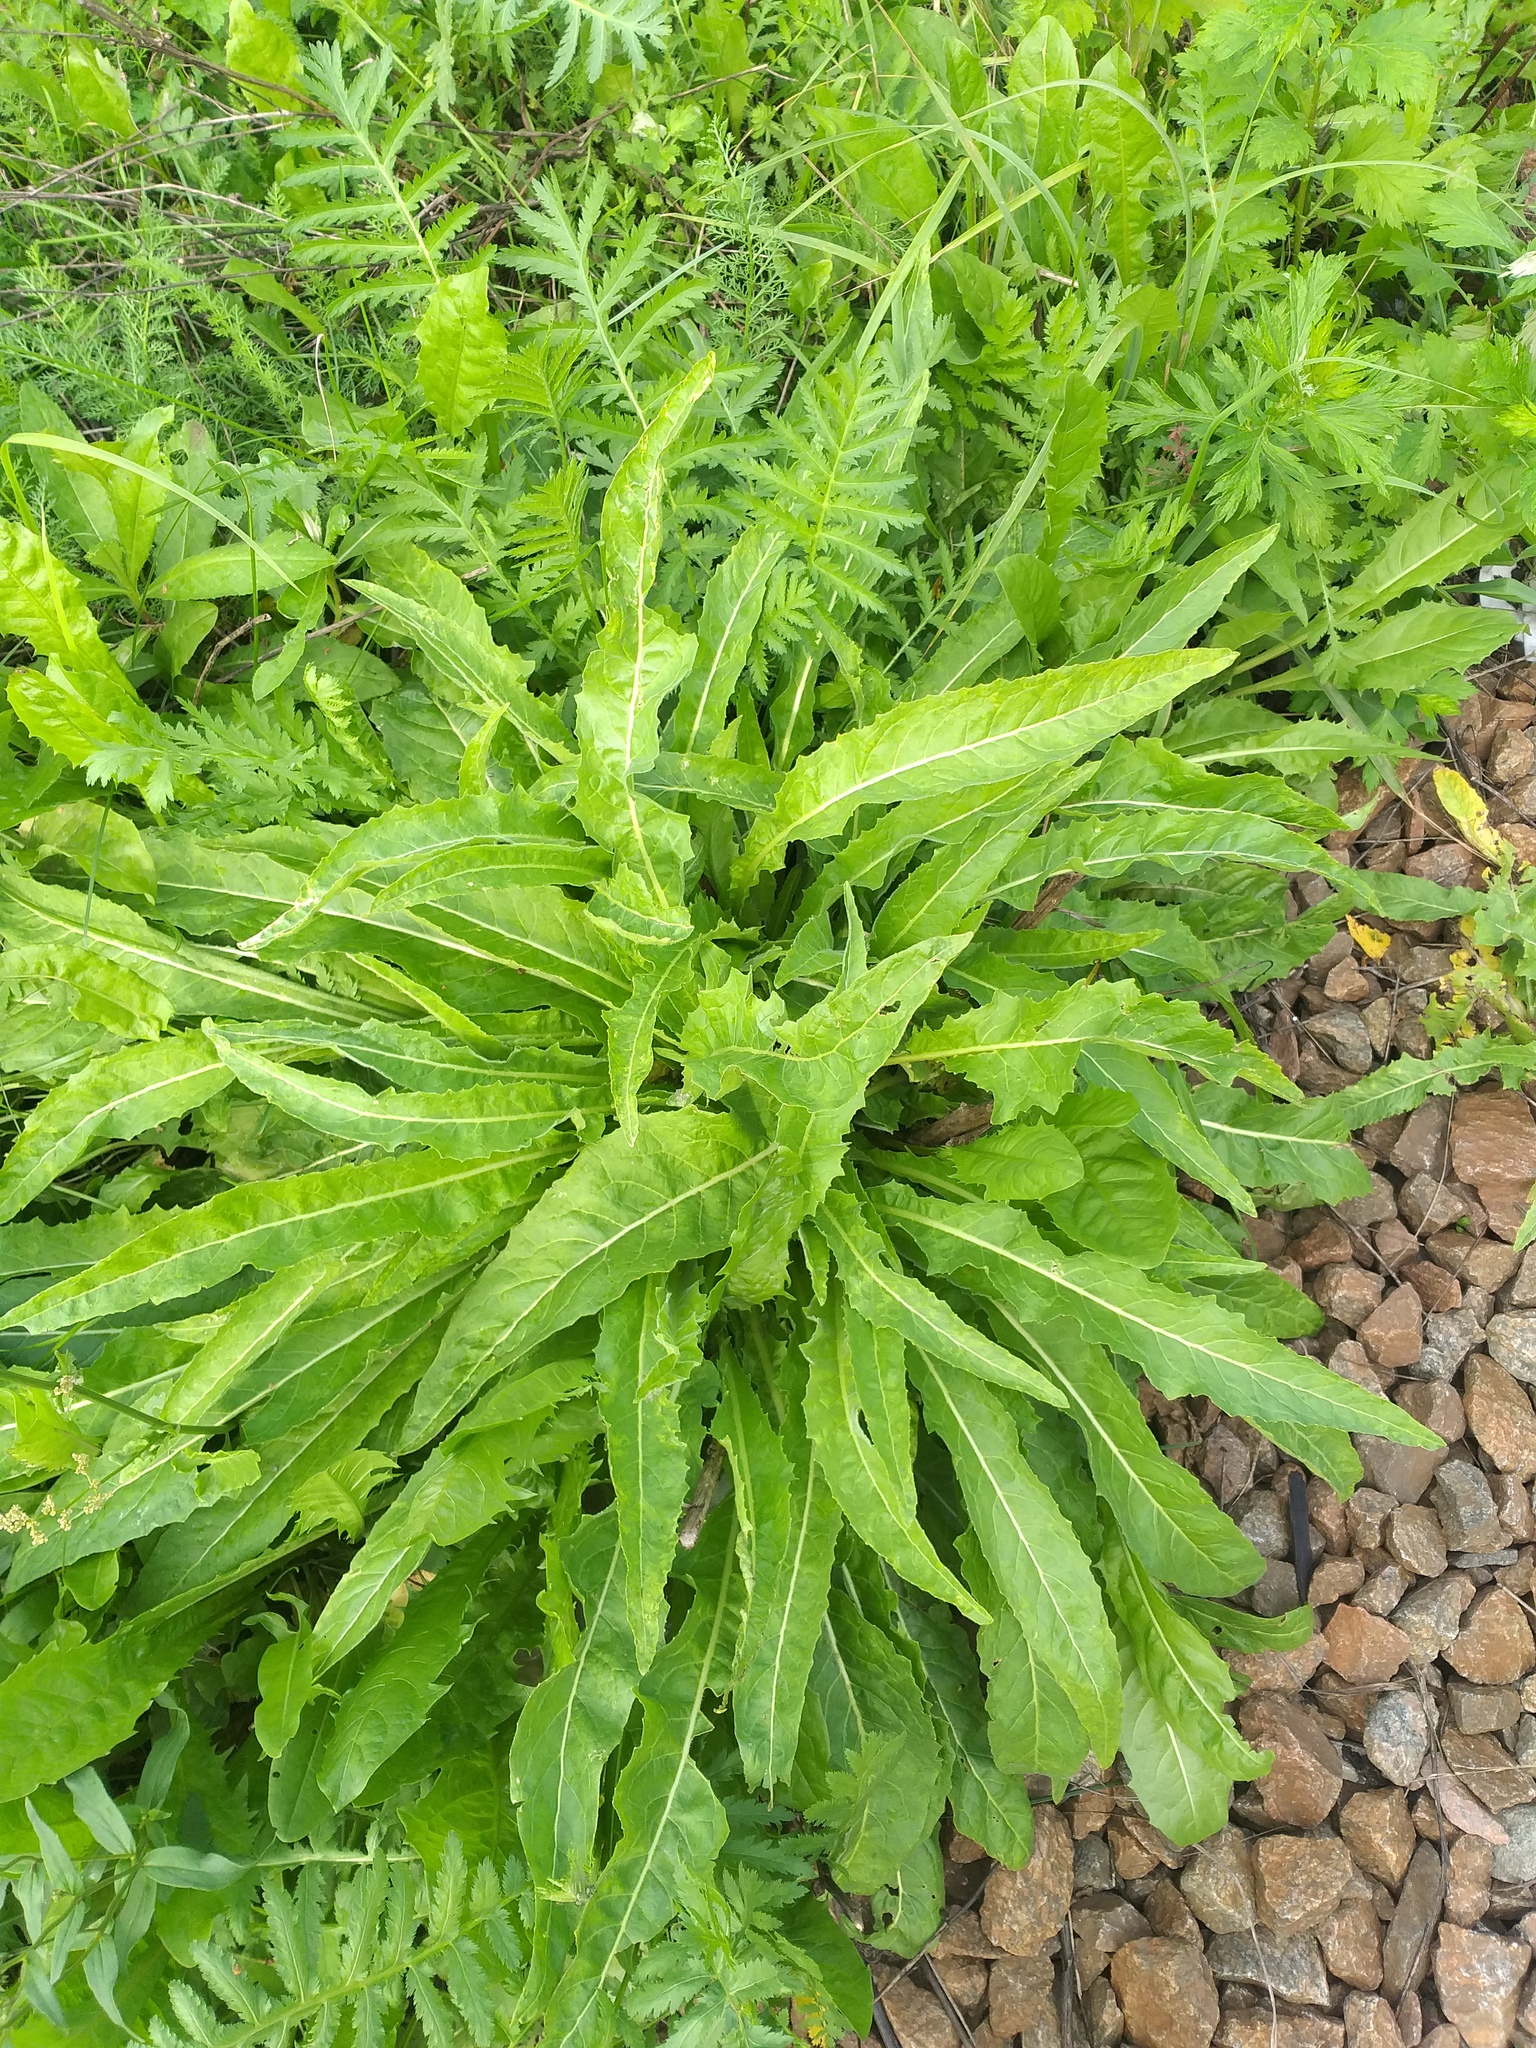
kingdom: Plantae
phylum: Tracheophyta
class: Magnoliopsida
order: Brassicales
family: Brassicaceae
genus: Bunias
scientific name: Bunias orientalis
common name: Warty-cabbage
